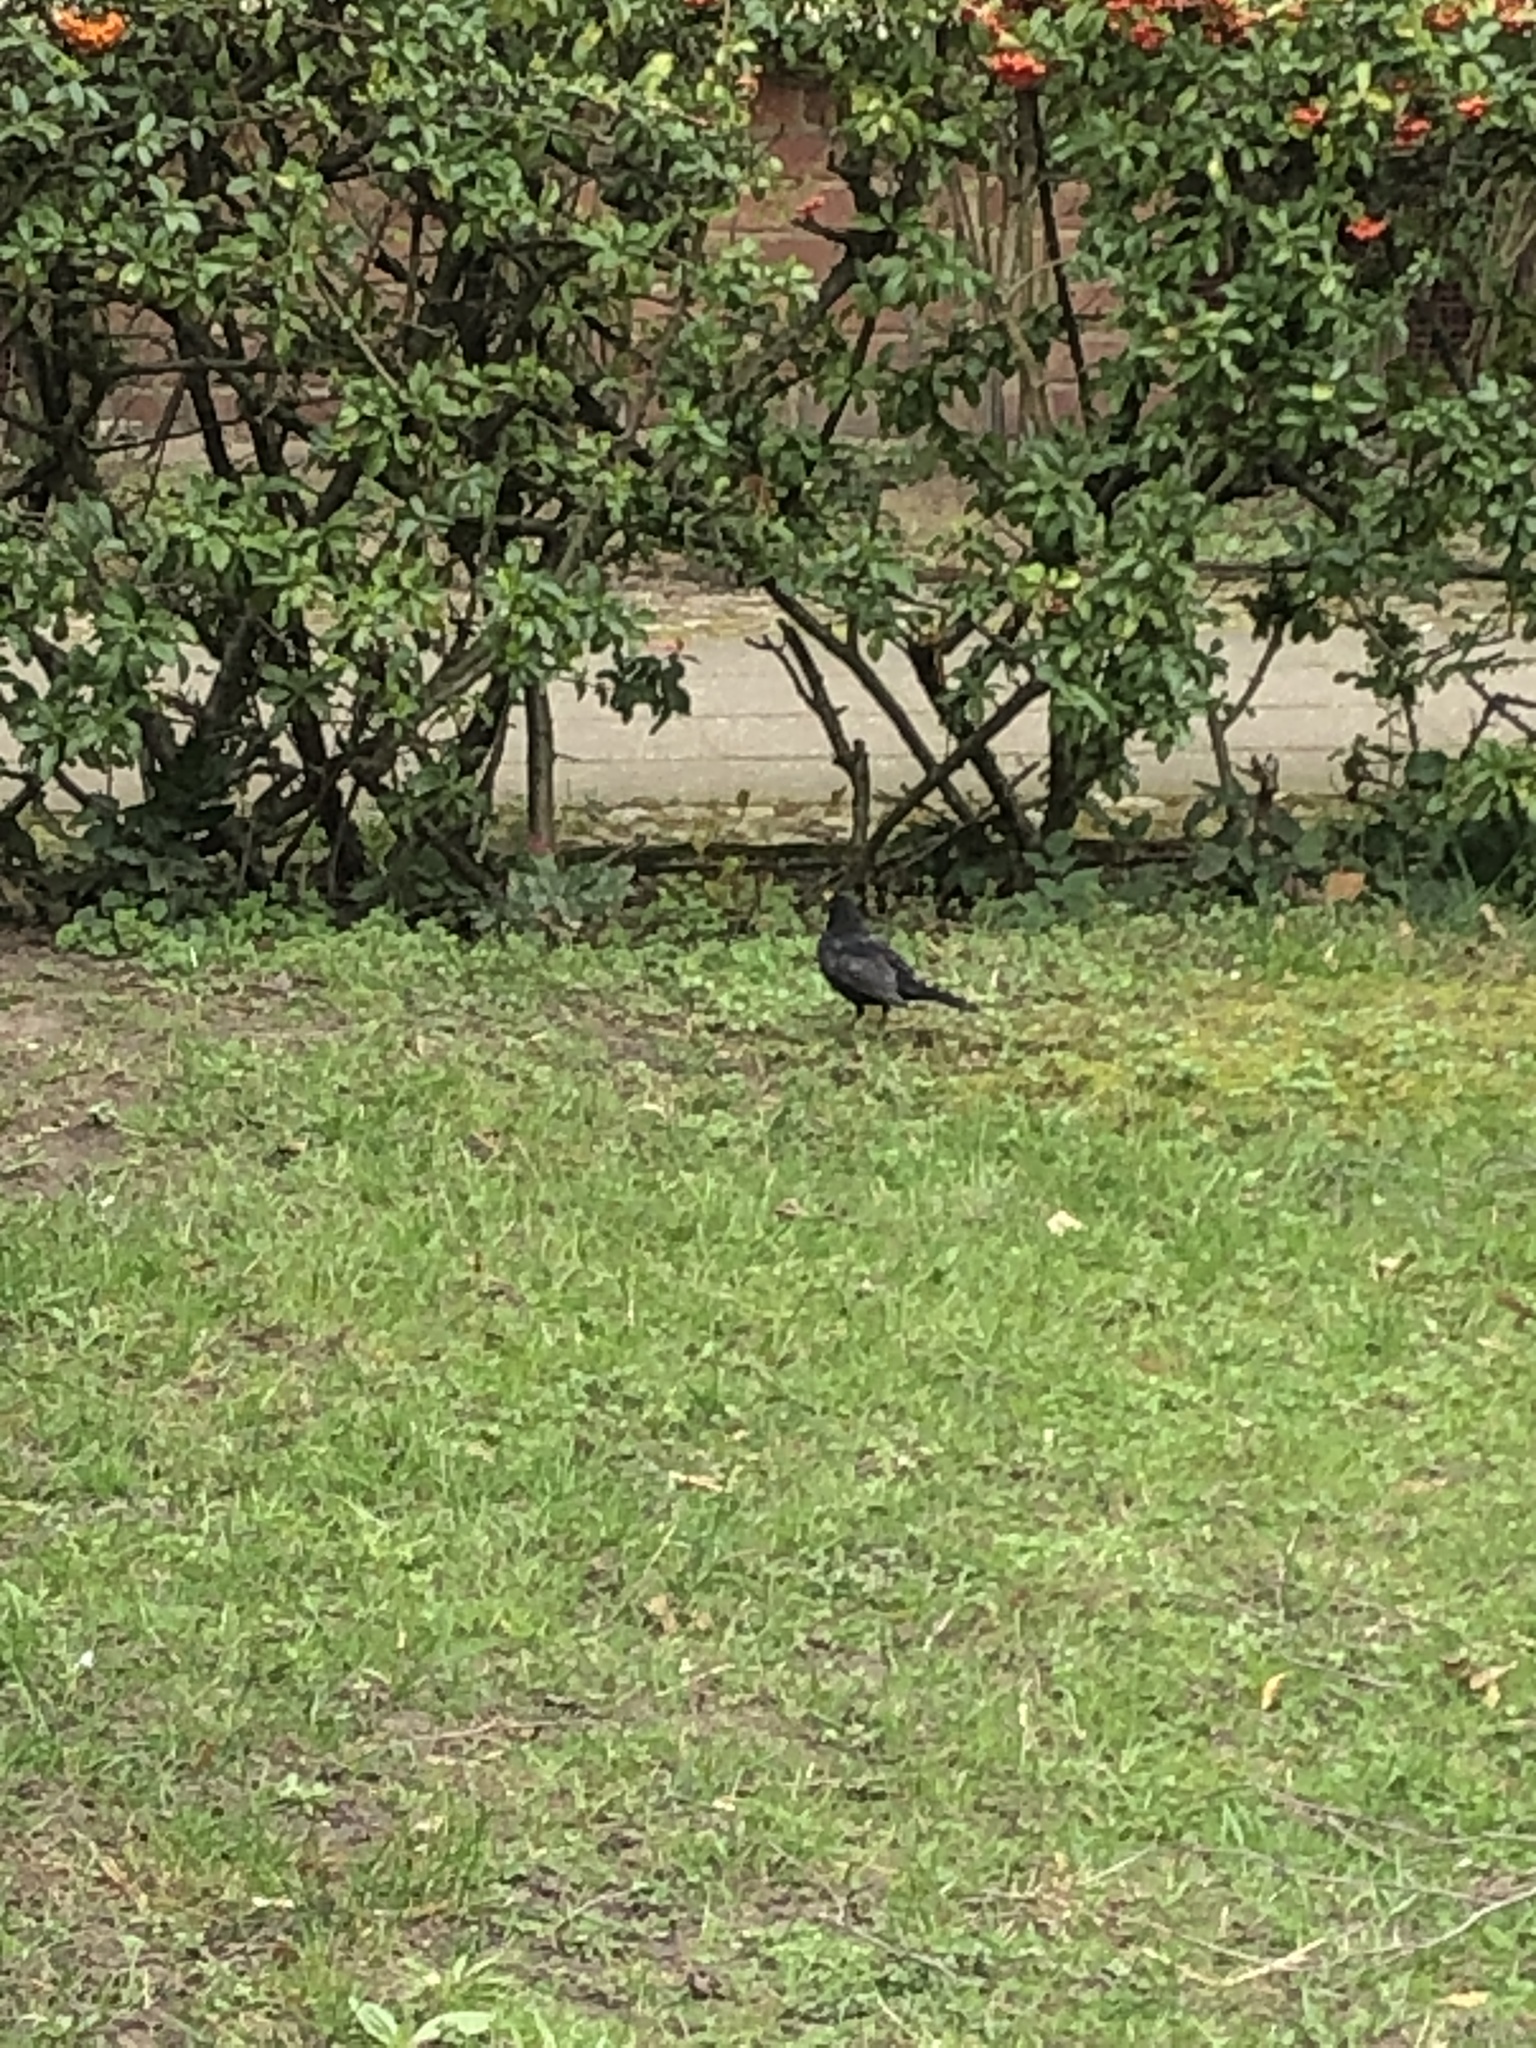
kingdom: Animalia
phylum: Chordata
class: Aves
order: Passeriformes
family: Turdidae
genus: Turdus
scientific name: Turdus merula
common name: Common blackbird
